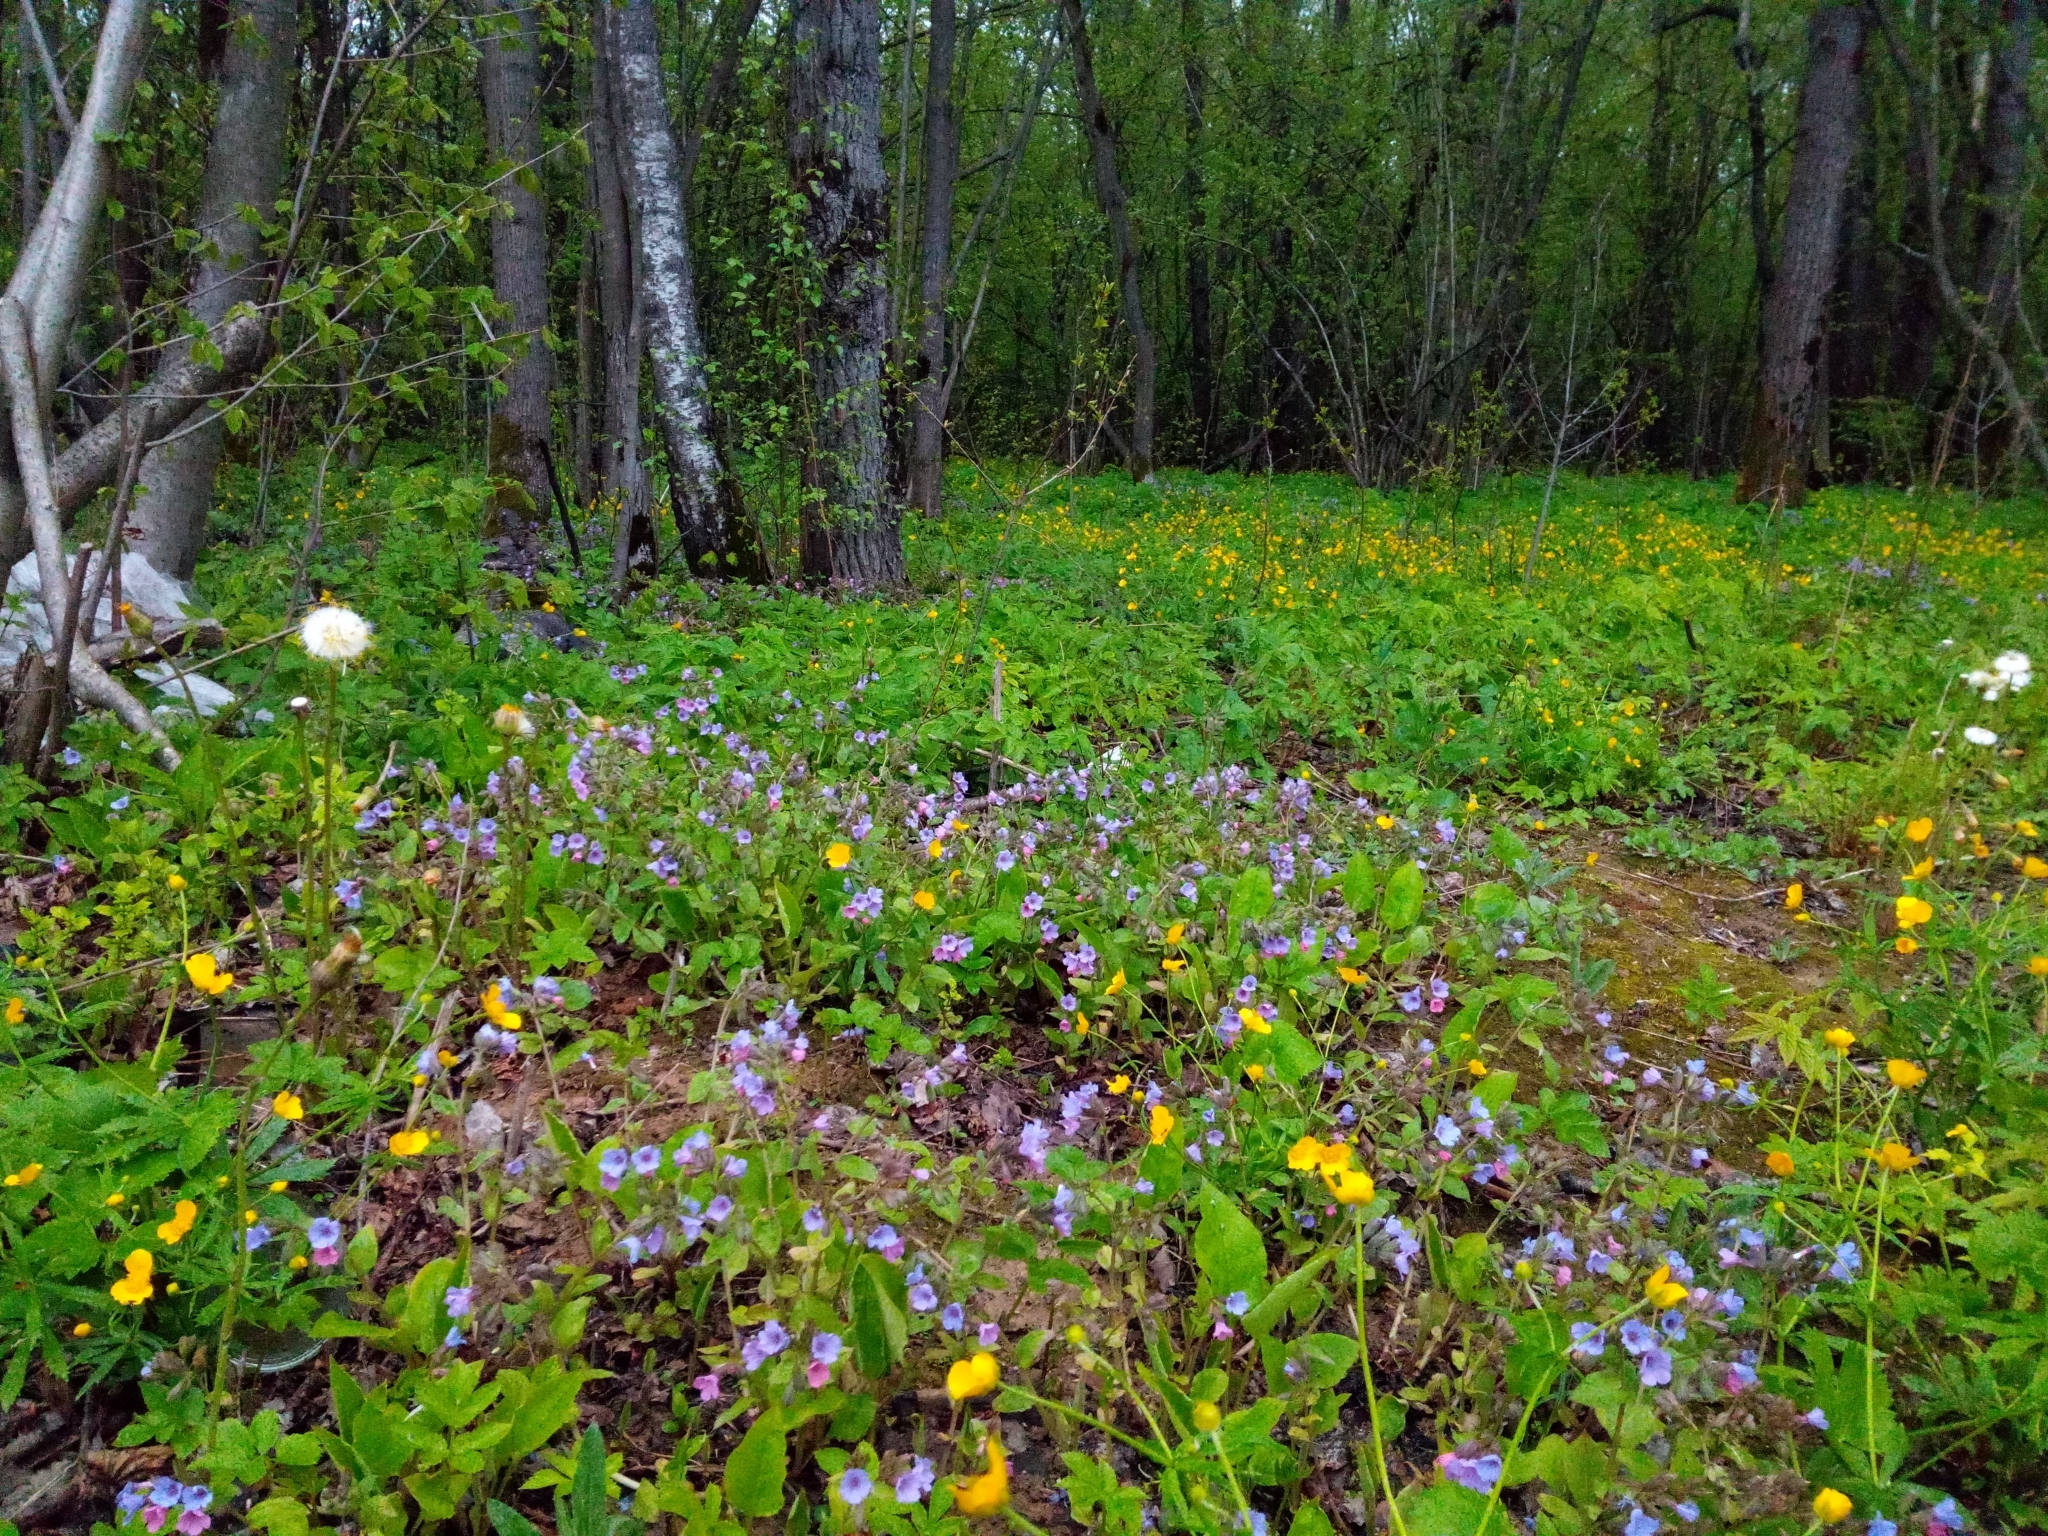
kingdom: Plantae
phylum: Tracheophyta
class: Magnoliopsida
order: Boraginales
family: Boraginaceae
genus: Pulmonaria
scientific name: Pulmonaria obscura
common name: Suffolk lungwort
